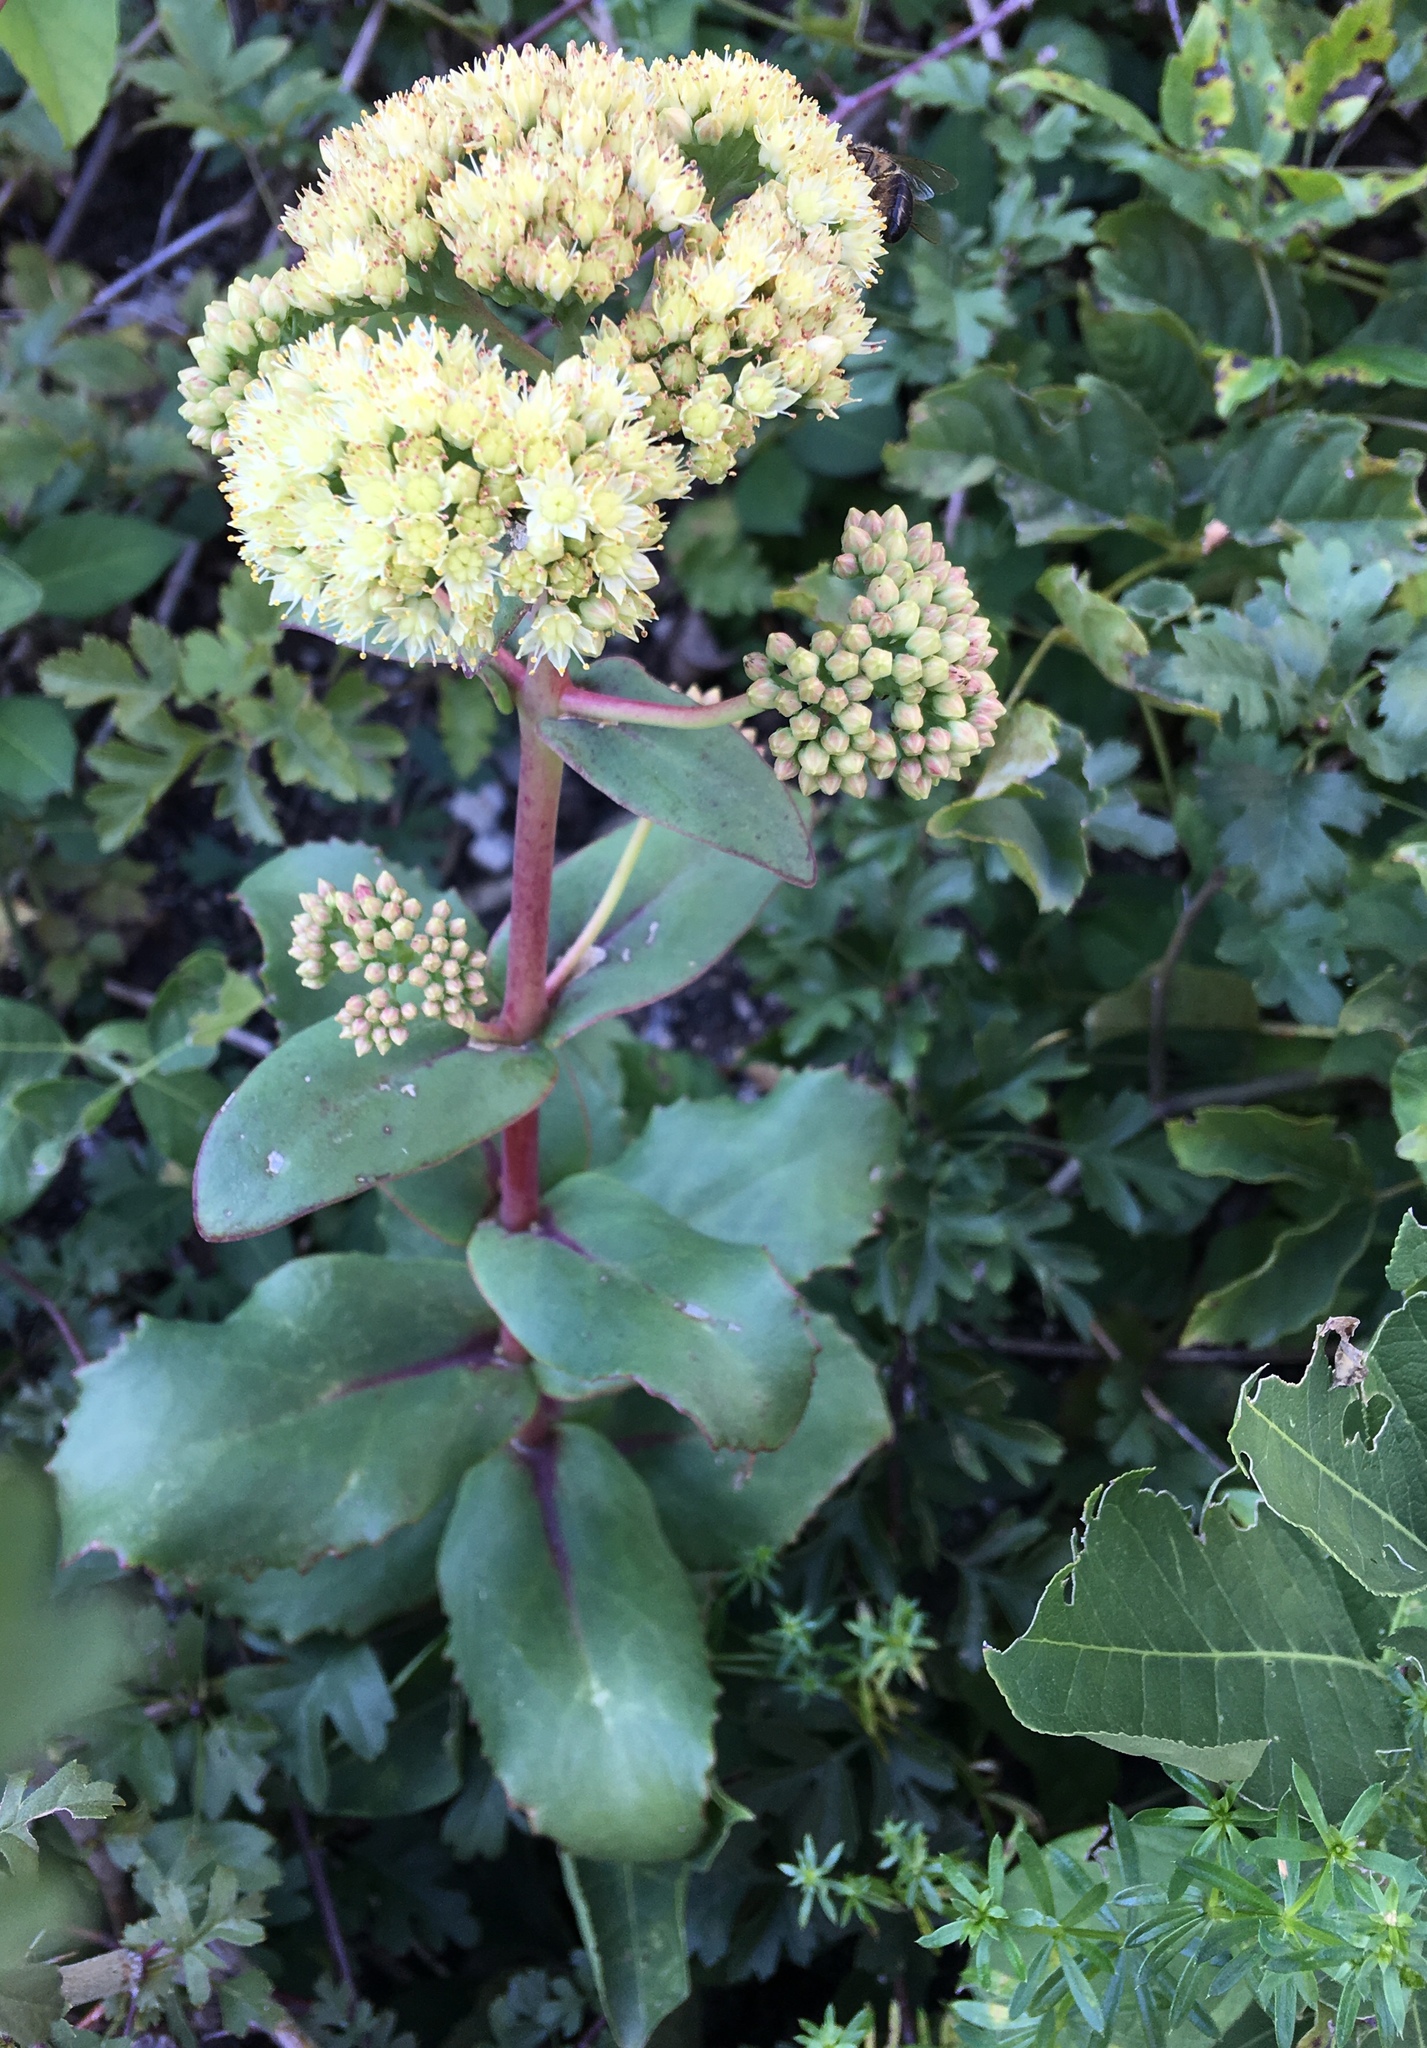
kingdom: Plantae
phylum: Tracheophyta
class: Magnoliopsida
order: Saxifragales
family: Crassulaceae
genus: Hylotelephium
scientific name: Hylotelephium maximum
